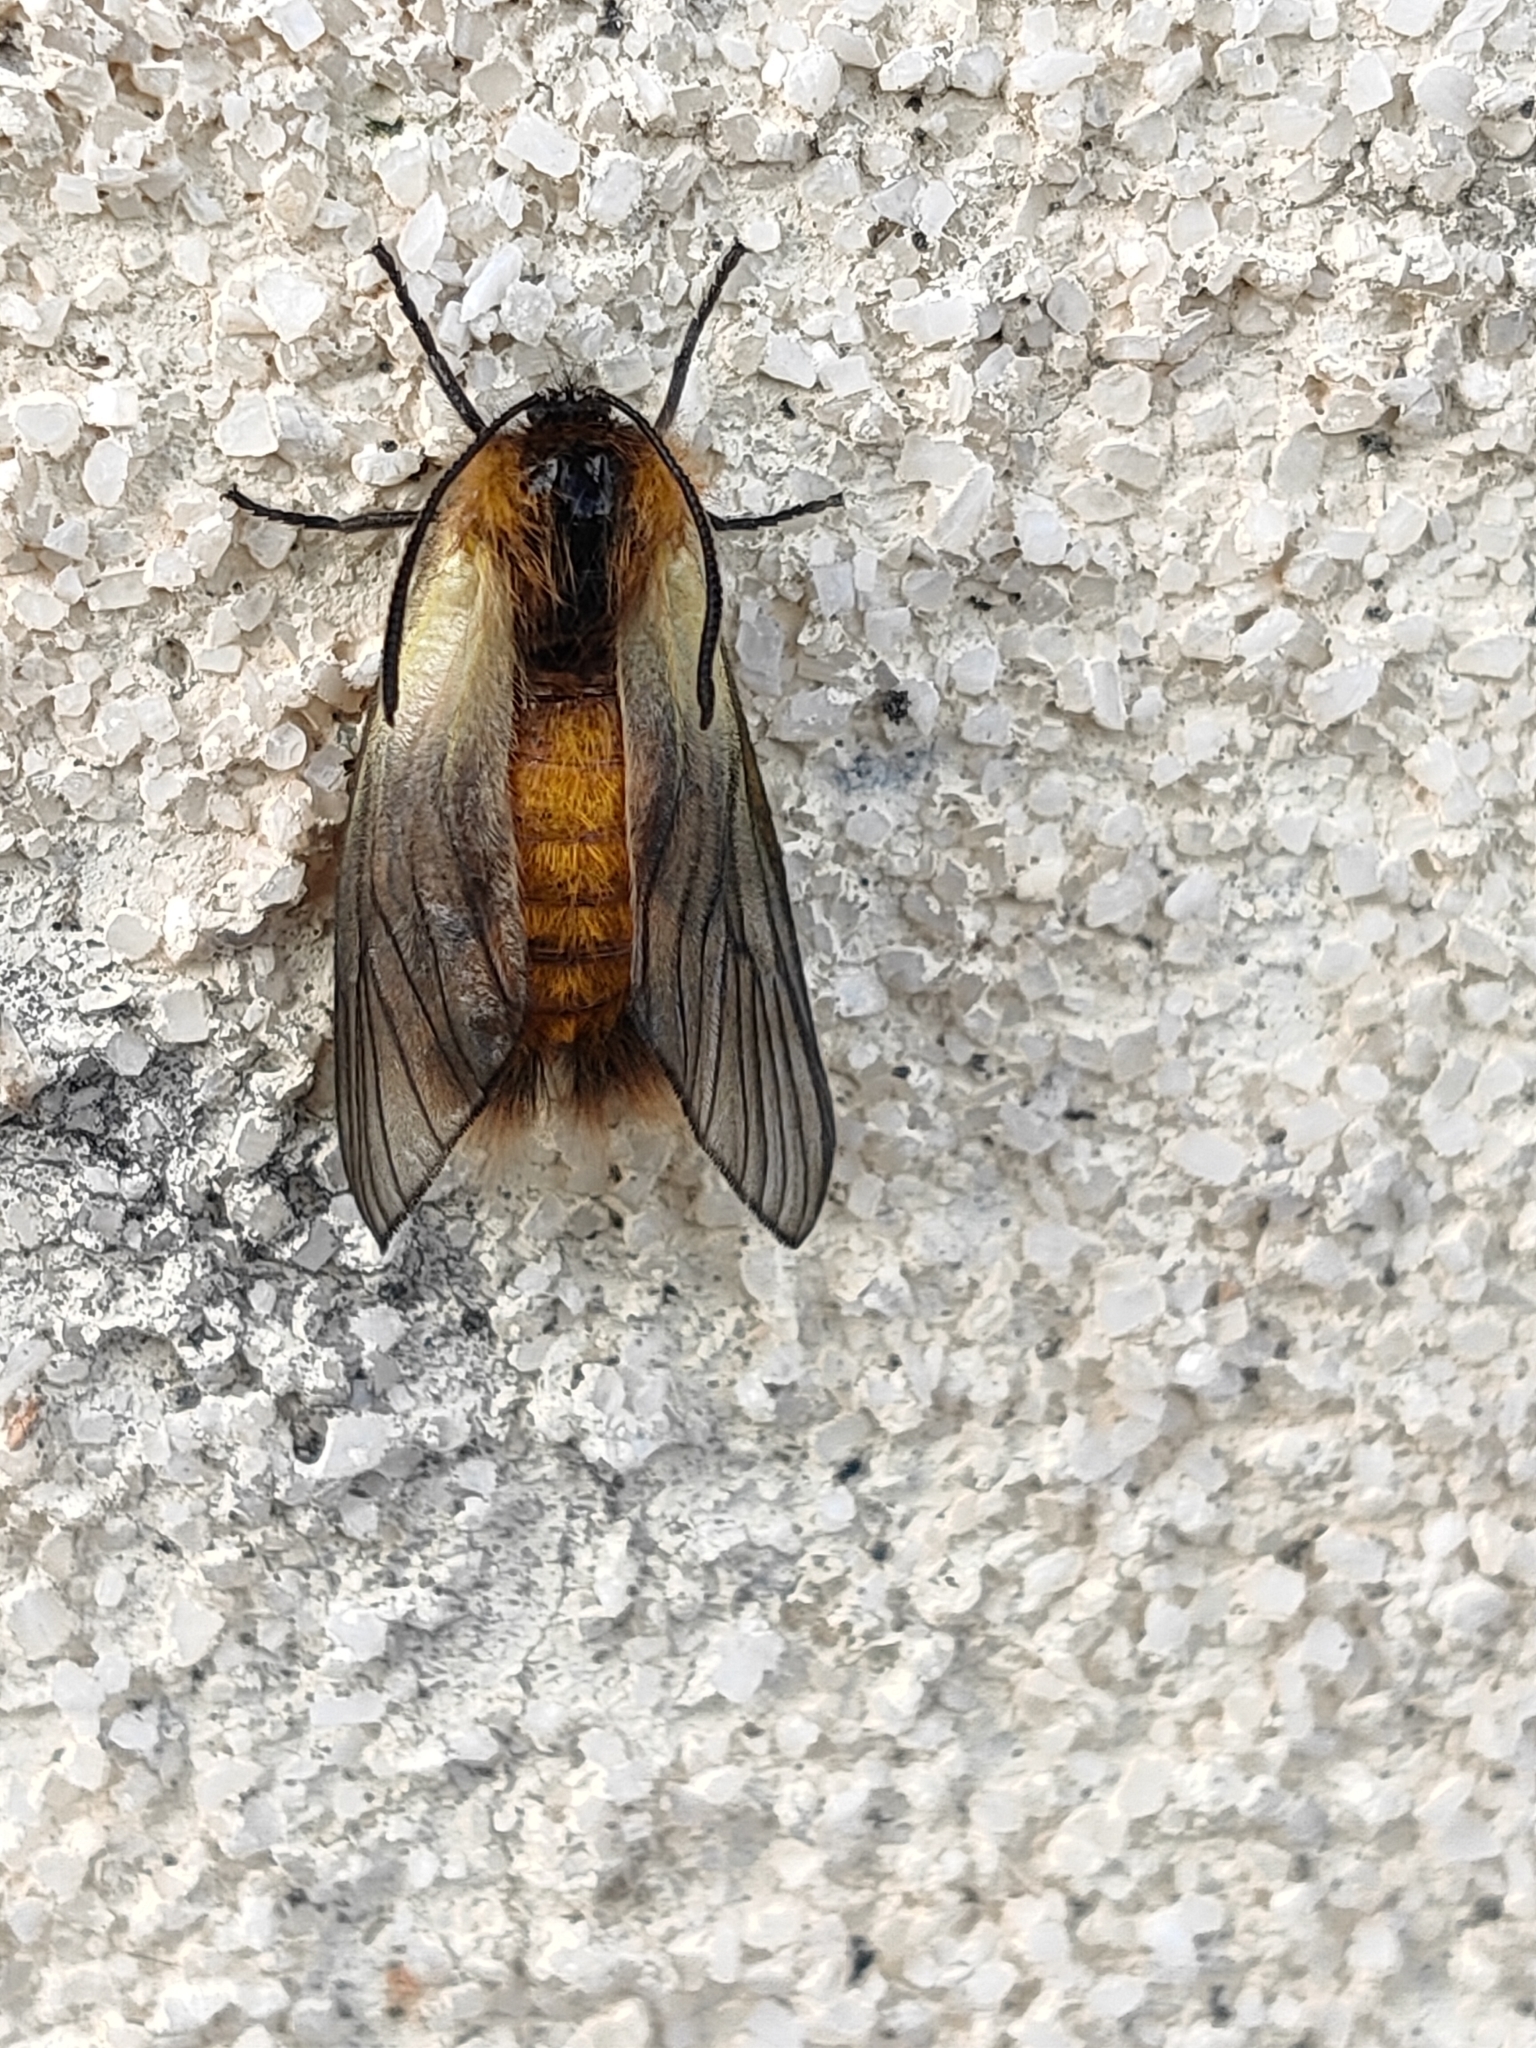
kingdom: Animalia
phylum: Arthropoda
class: Insecta
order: Lepidoptera
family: Zygaenidae
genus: Sinica
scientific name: Sinica sinica
